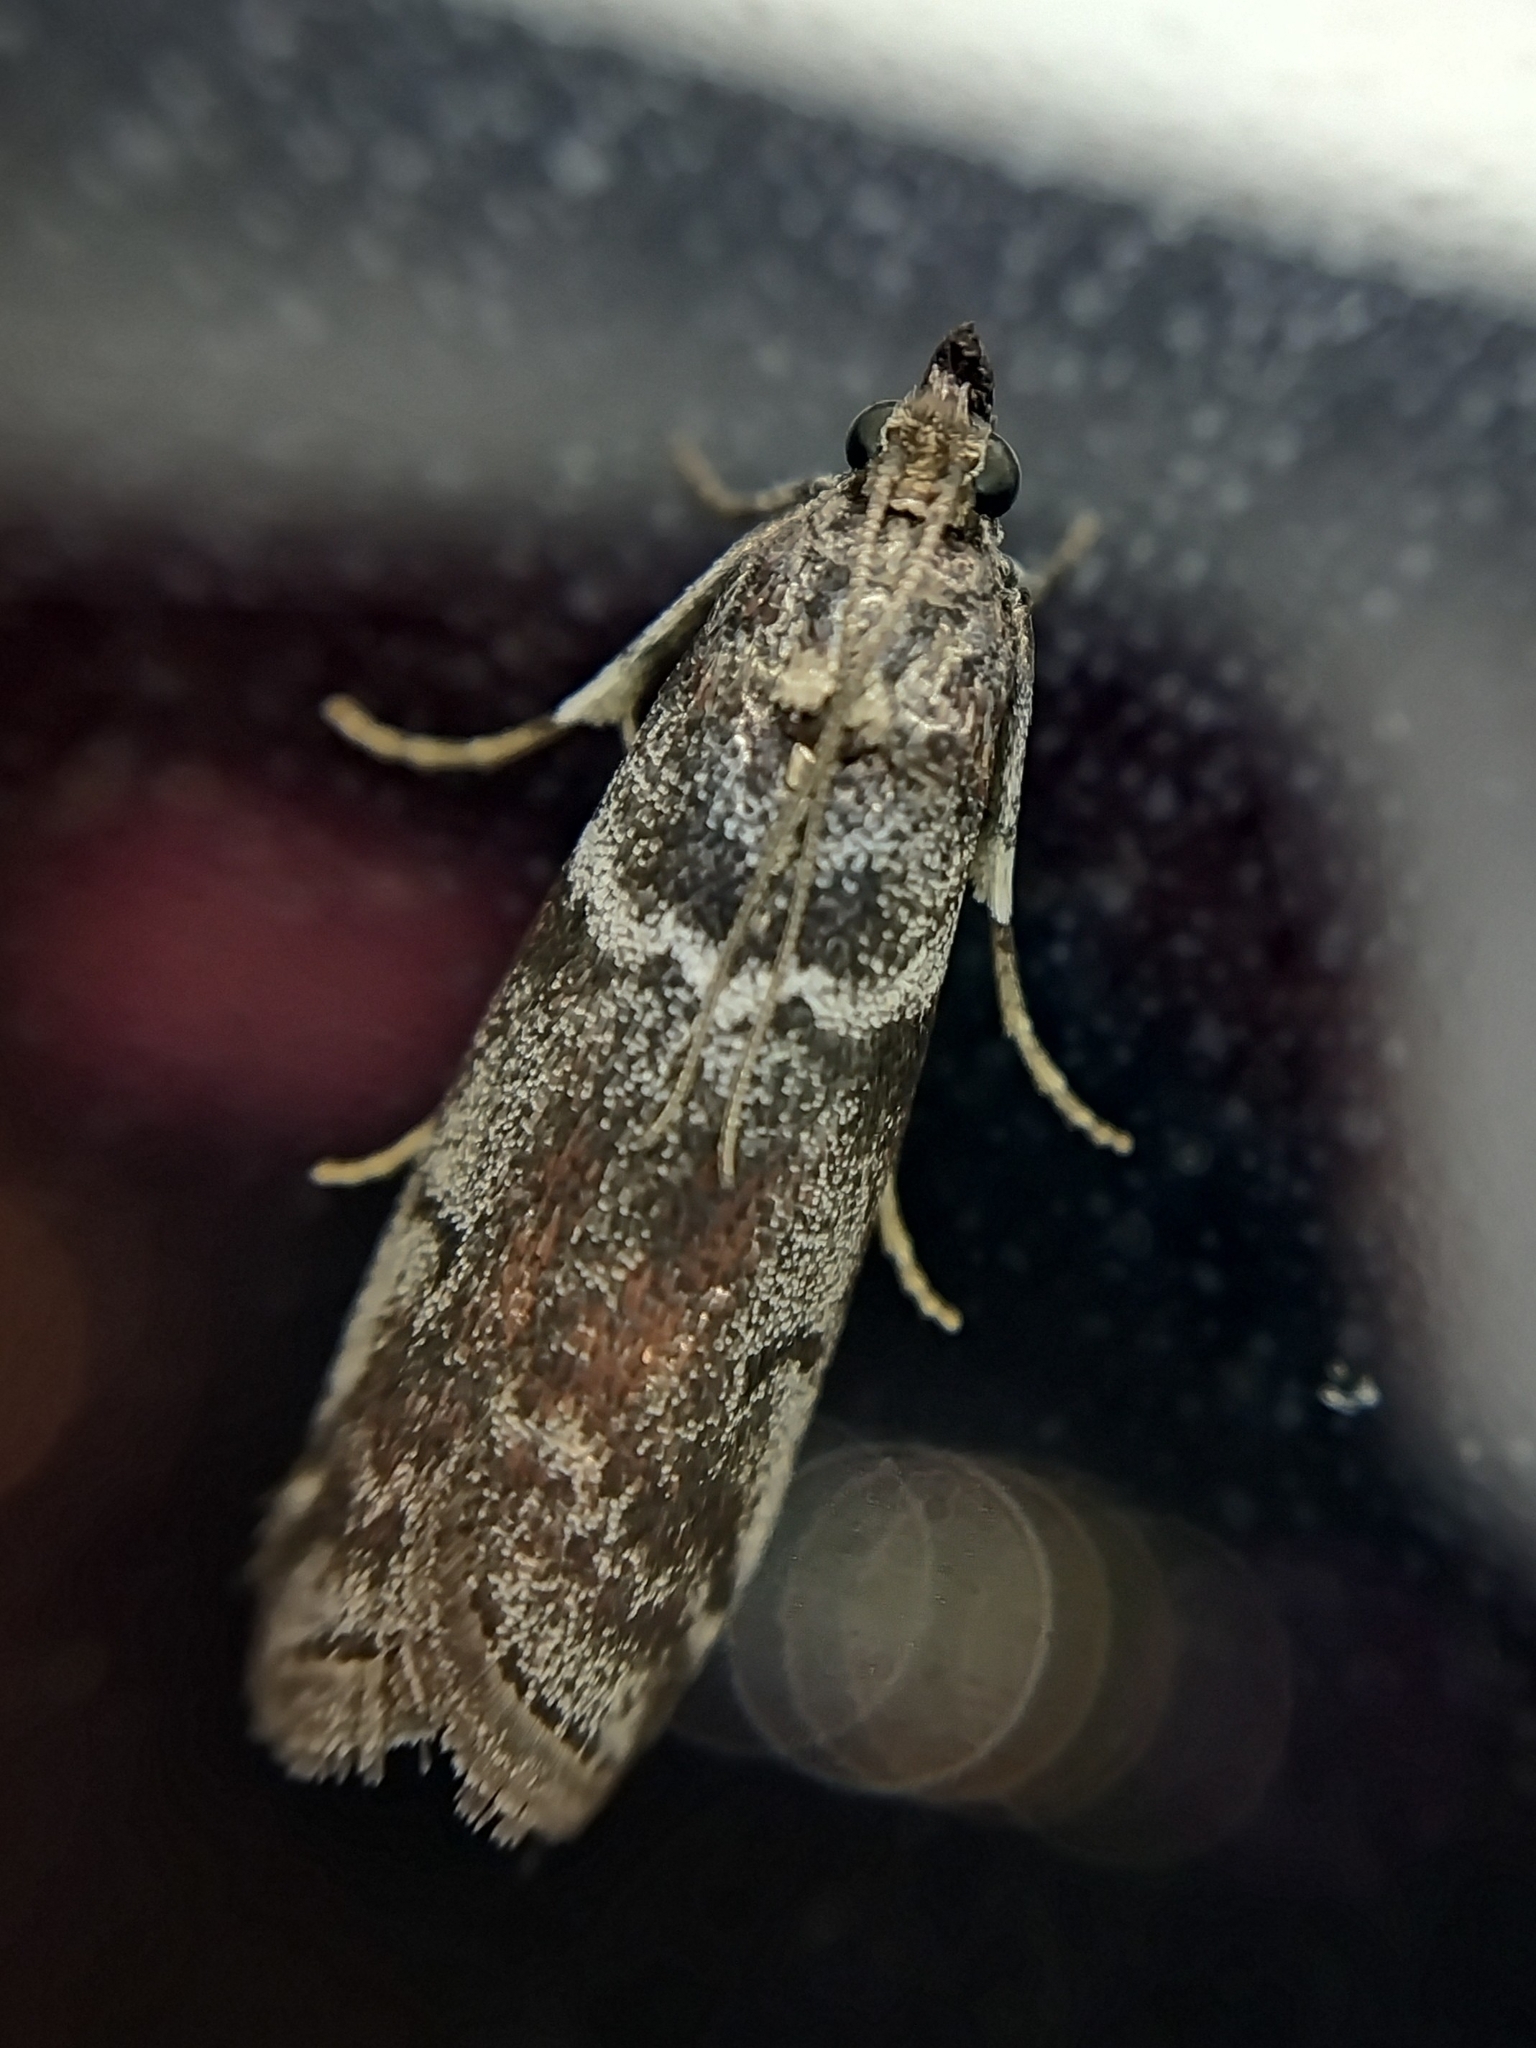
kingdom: Animalia
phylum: Arthropoda
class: Insecta
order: Lepidoptera
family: Pyralidae
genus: Oncocera
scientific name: Oncocera Laodamia faecella
